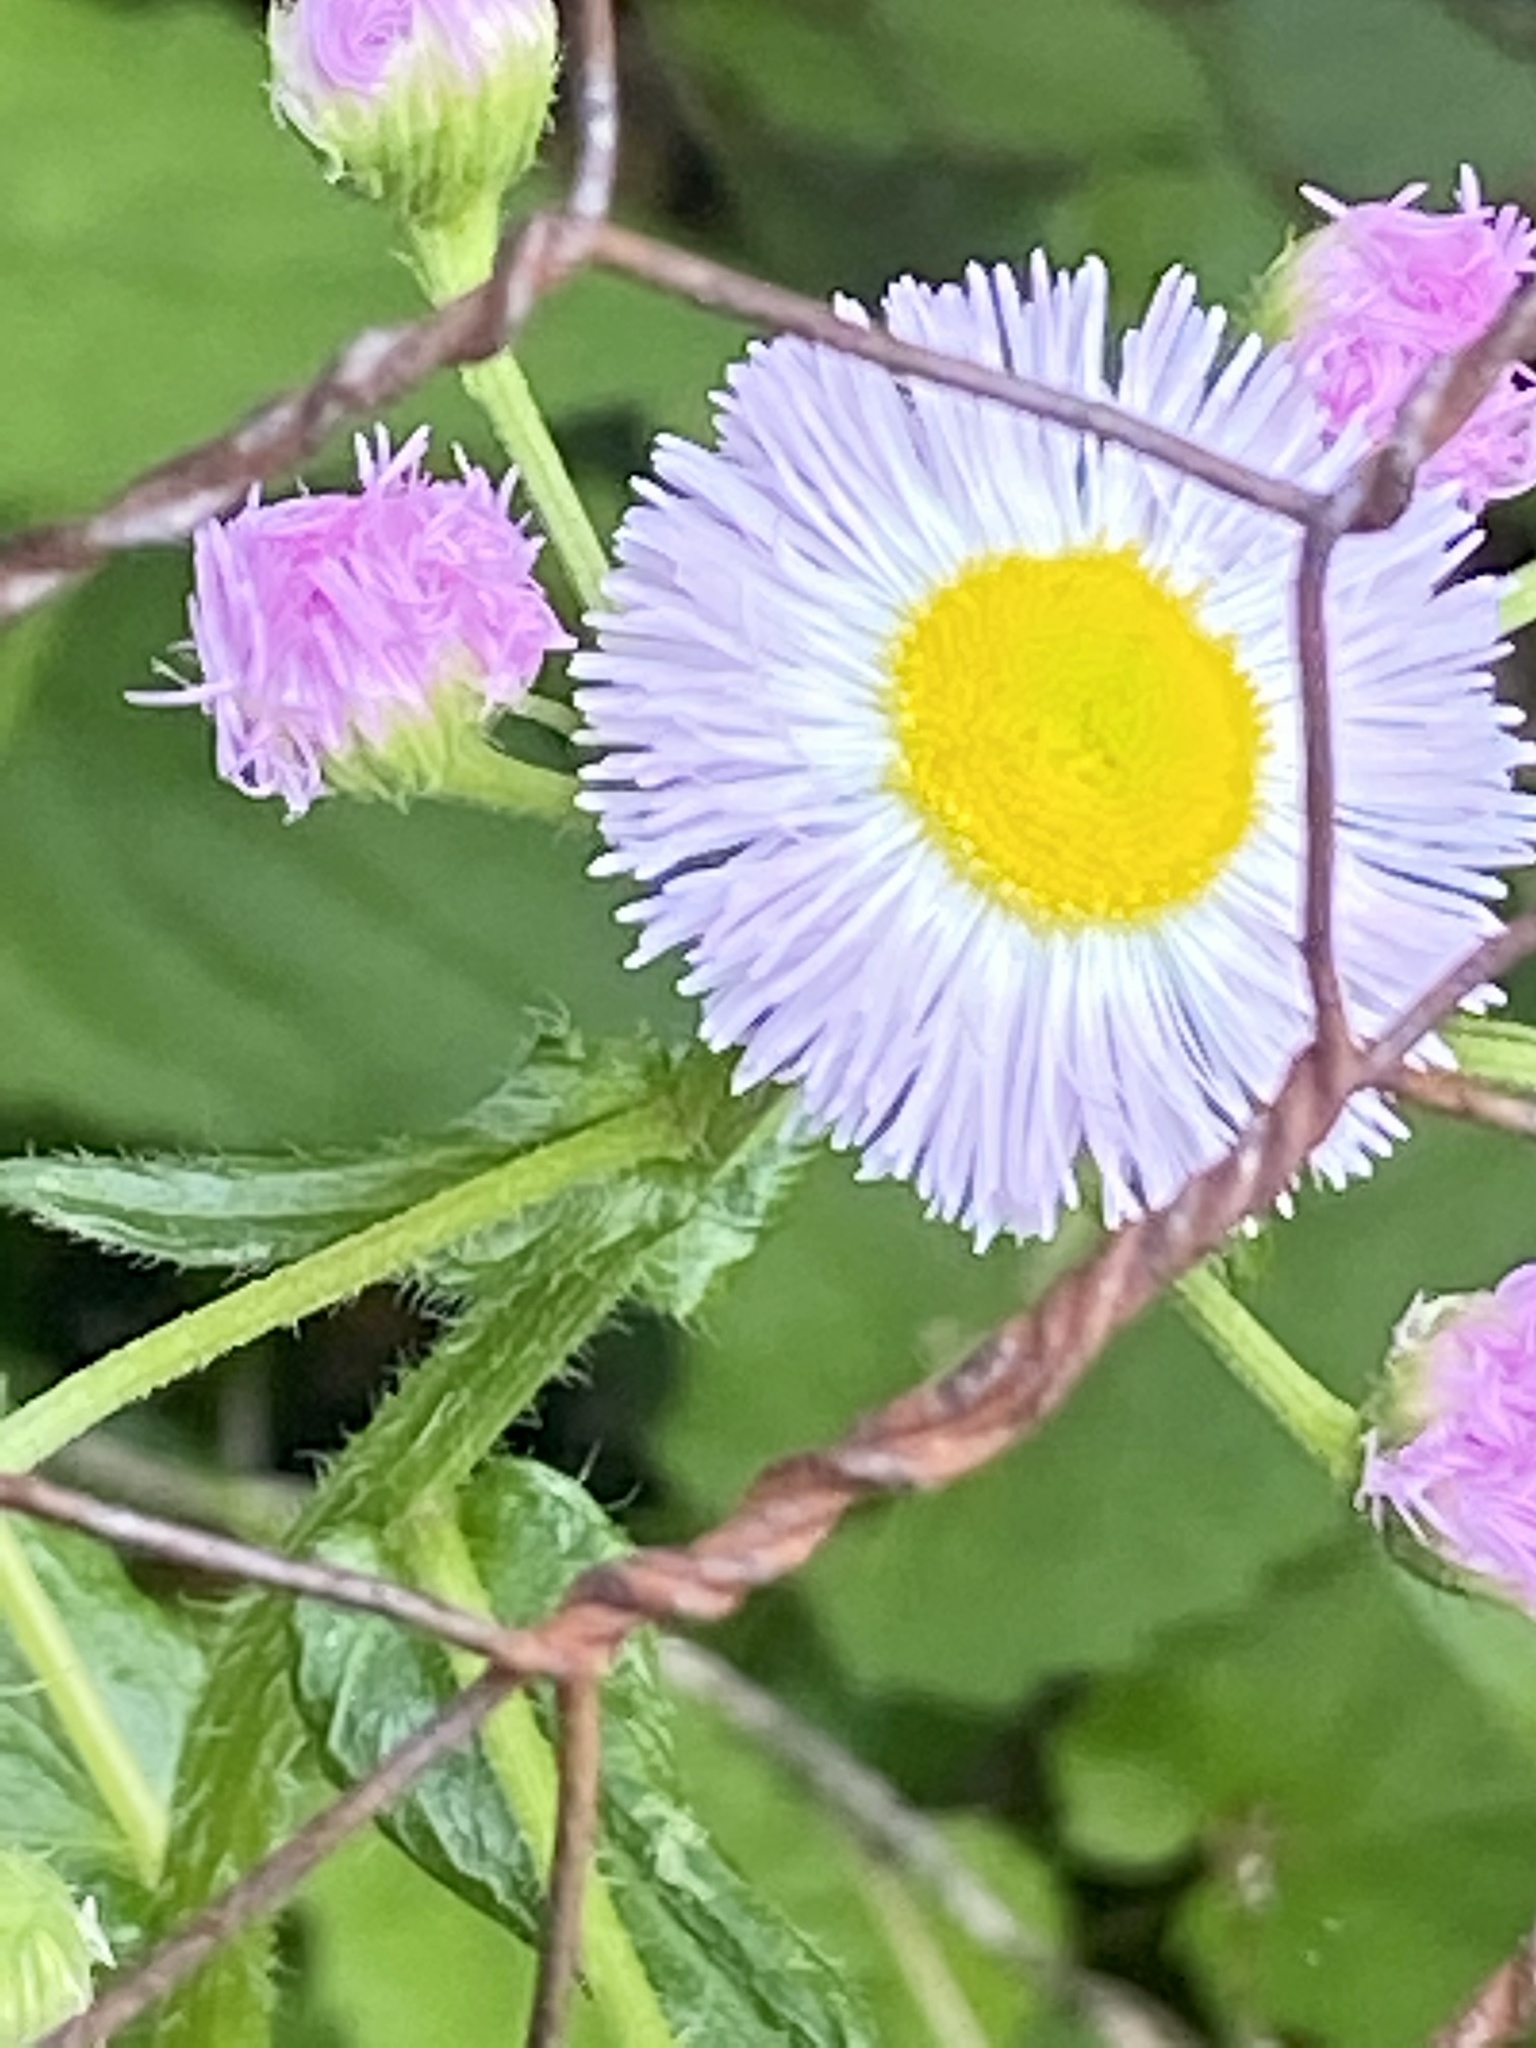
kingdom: Plantae
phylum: Tracheophyta
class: Magnoliopsida
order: Asterales
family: Asteraceae
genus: Erigeron
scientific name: Erigeron philadelphicus
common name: Robin's-plantain
